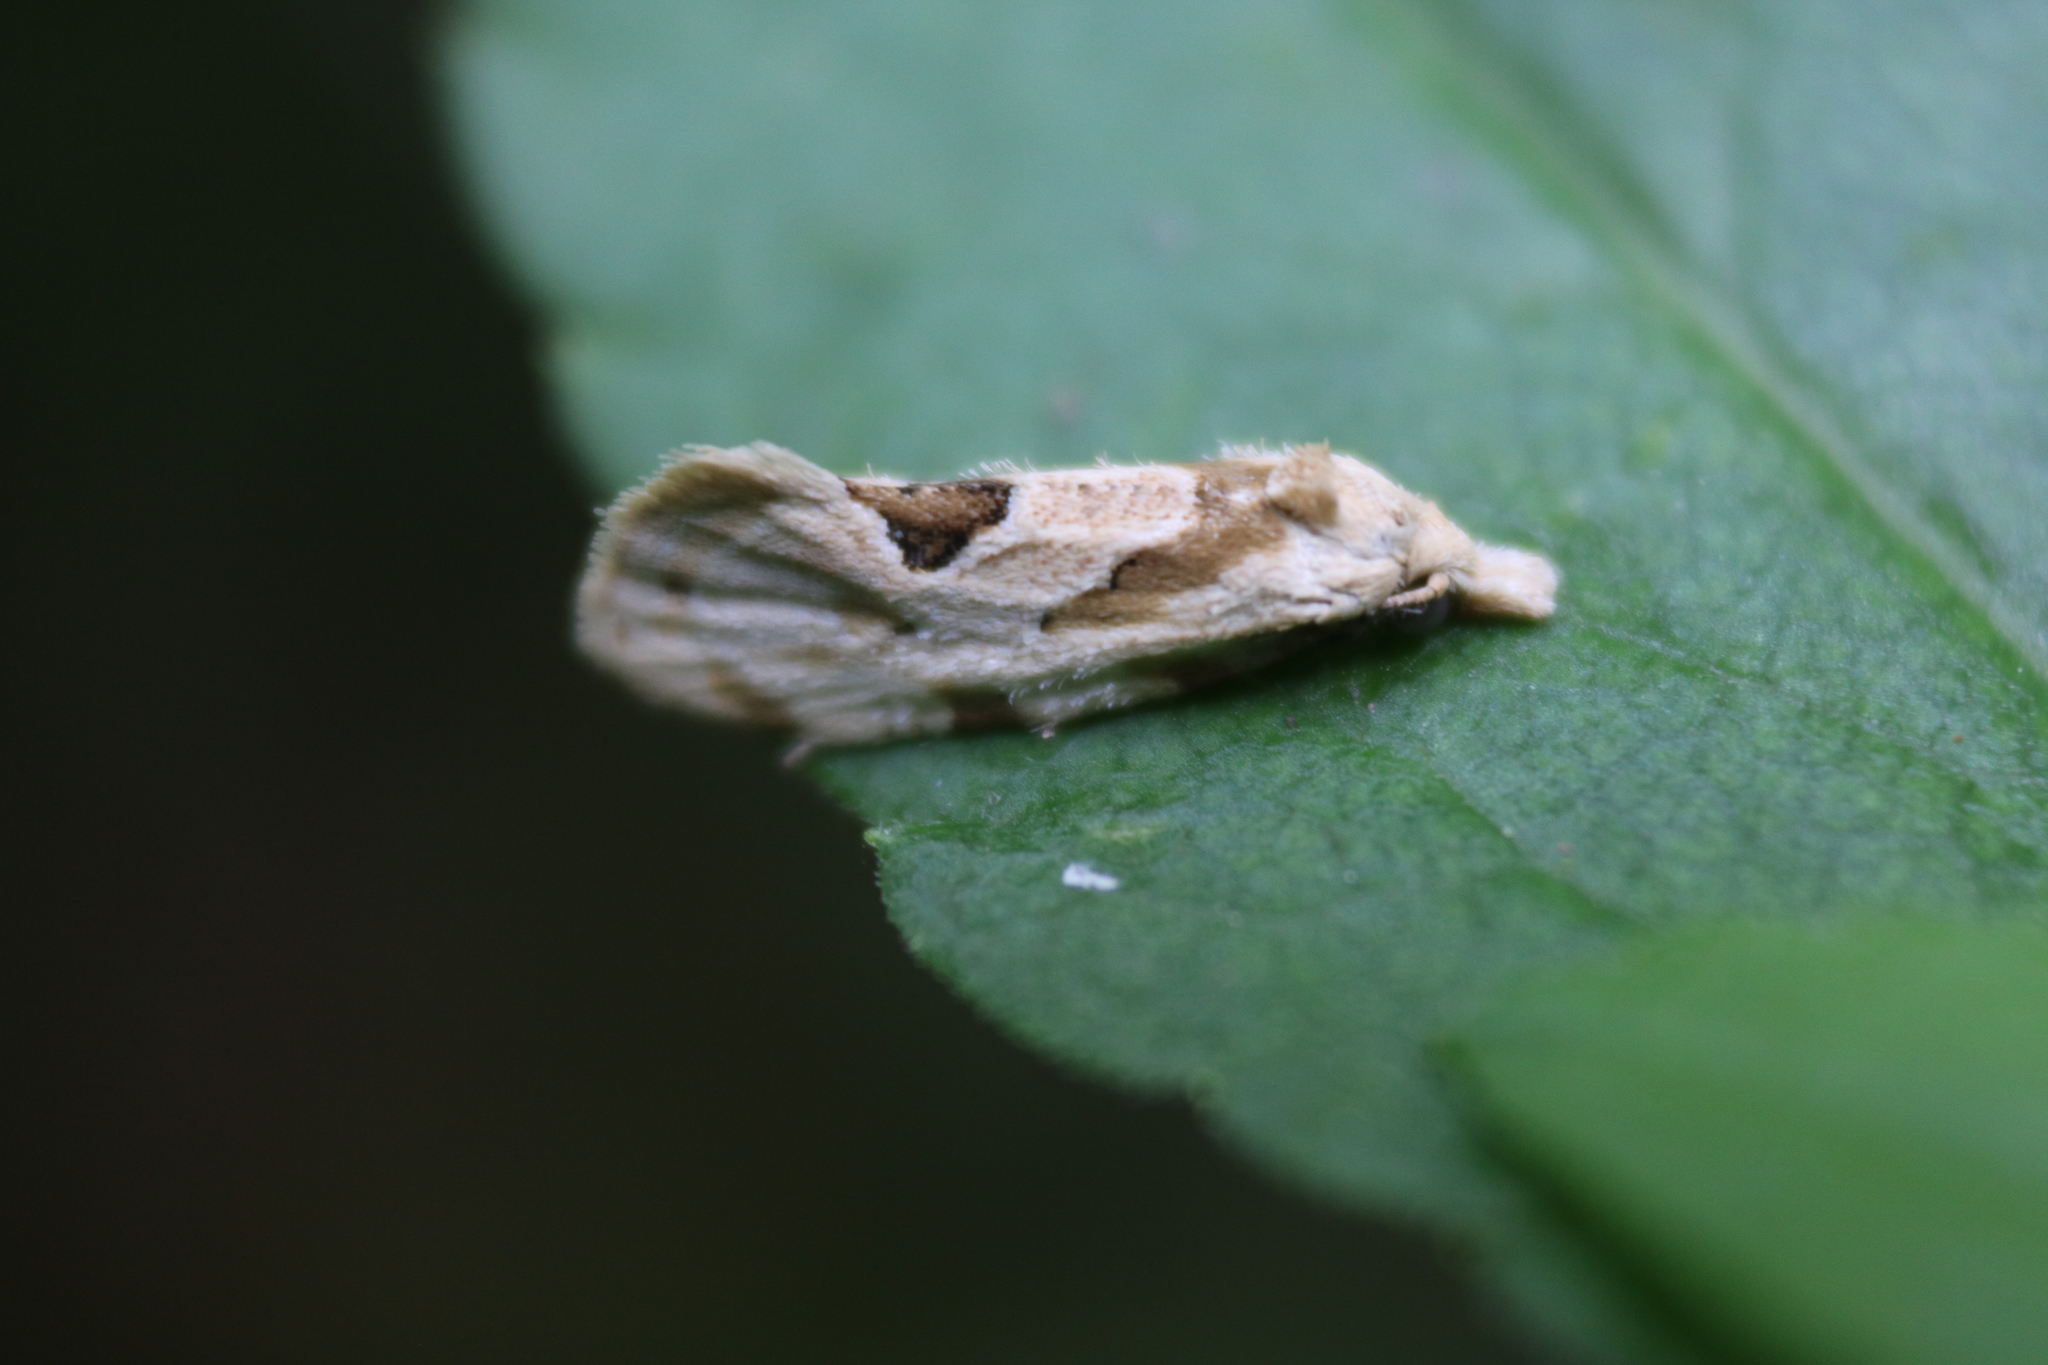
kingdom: Animalia
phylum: Arthropoda
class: Insecta
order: Lepidoptera
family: Tortricidae
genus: Aethes
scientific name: Aethes angustana
